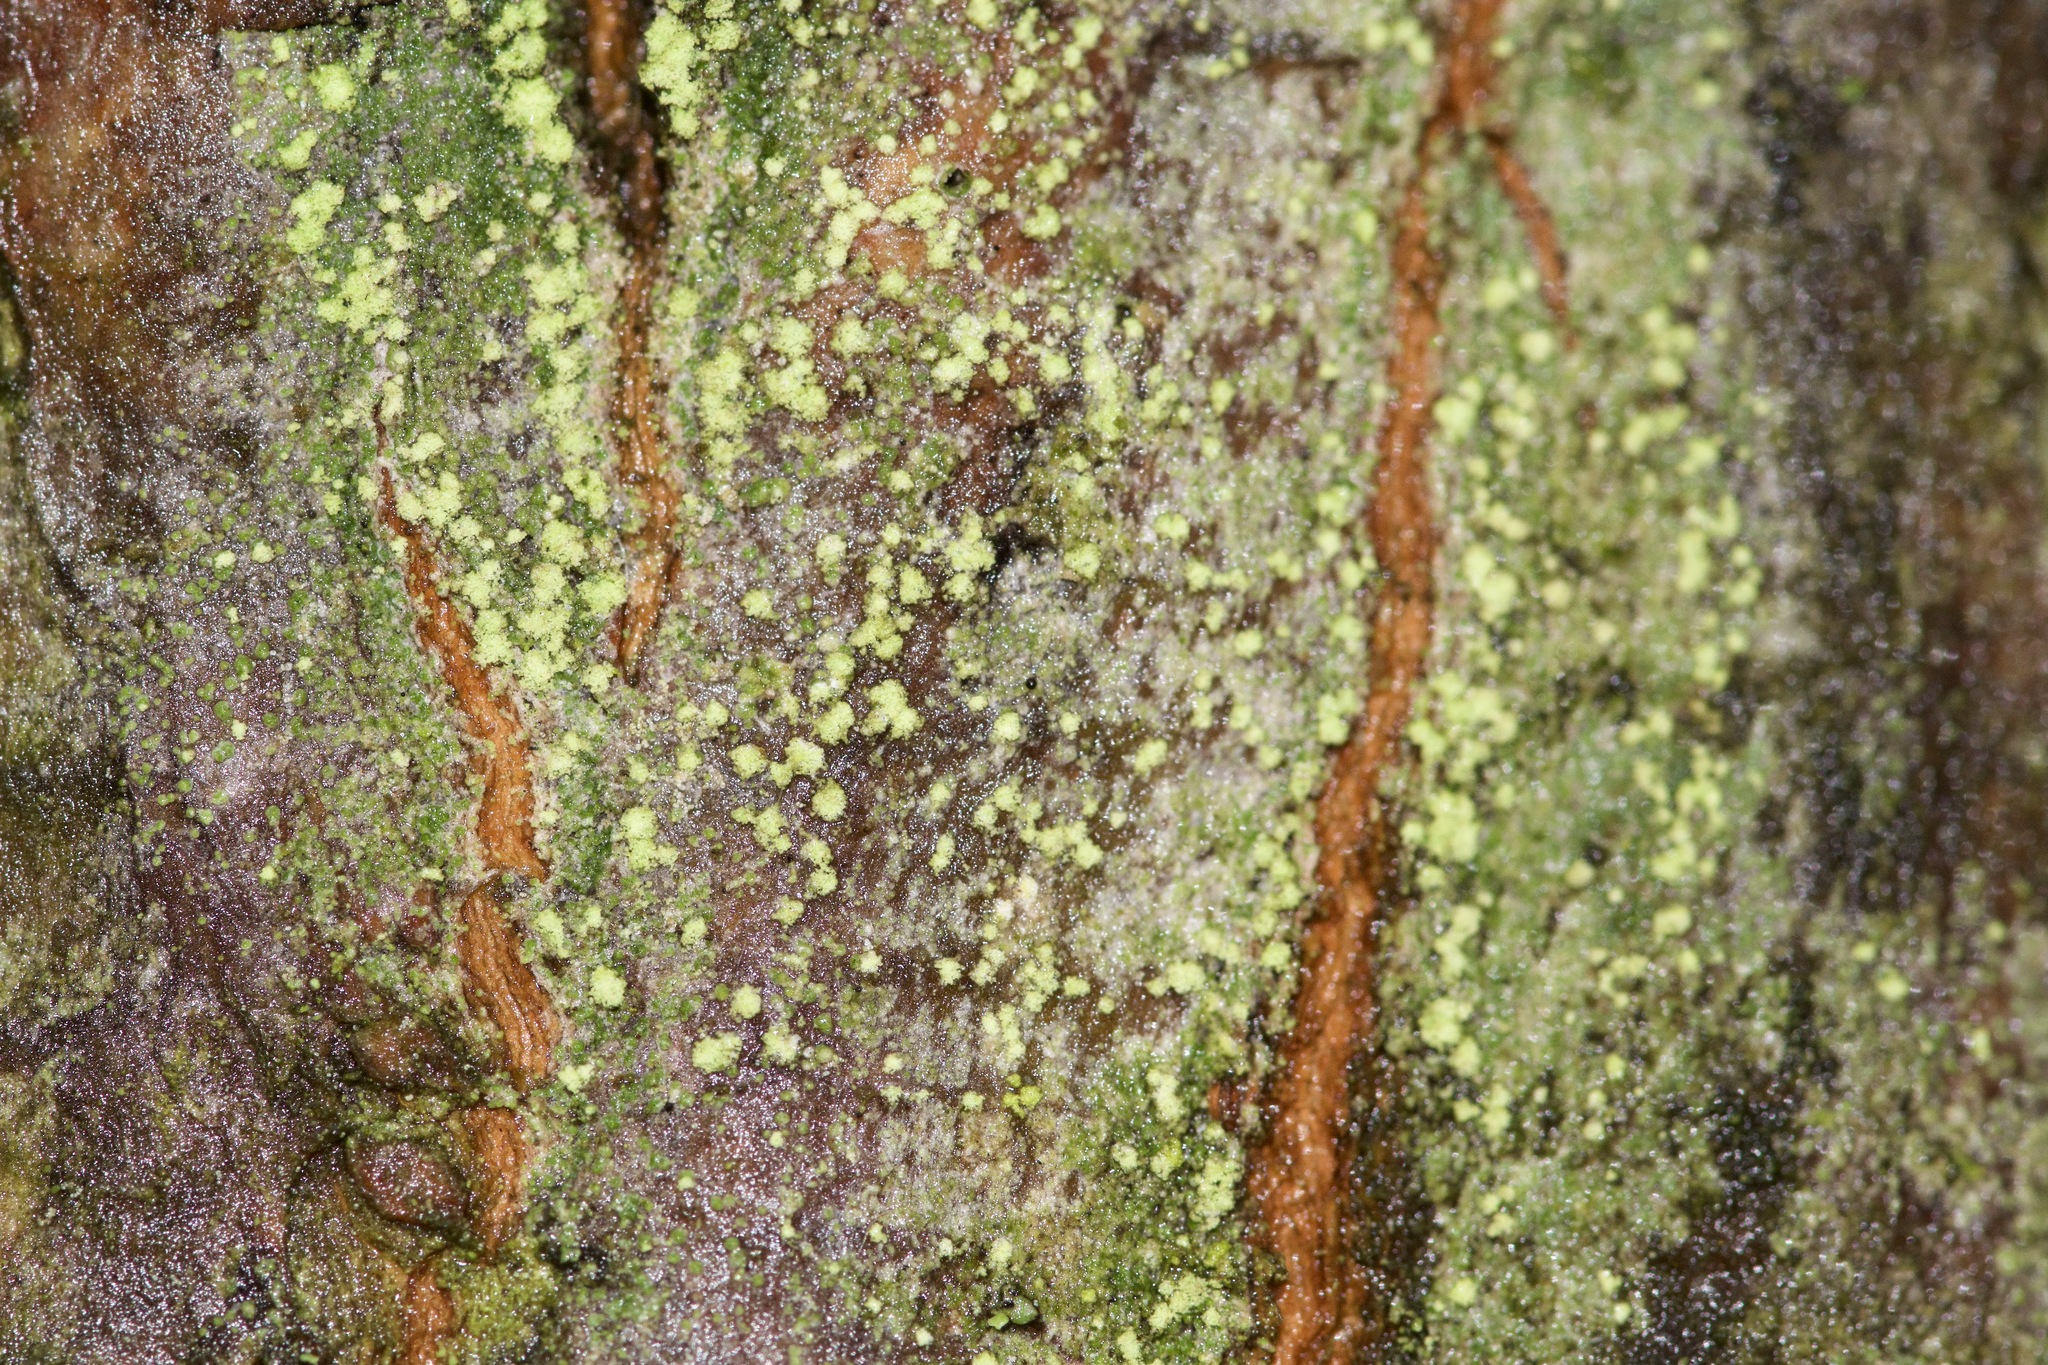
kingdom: Fungi
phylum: Ascomycota
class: Lecanoromycetes
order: Lecanorales
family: Ramalinaceae
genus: Lecania
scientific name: Lecania croatica
